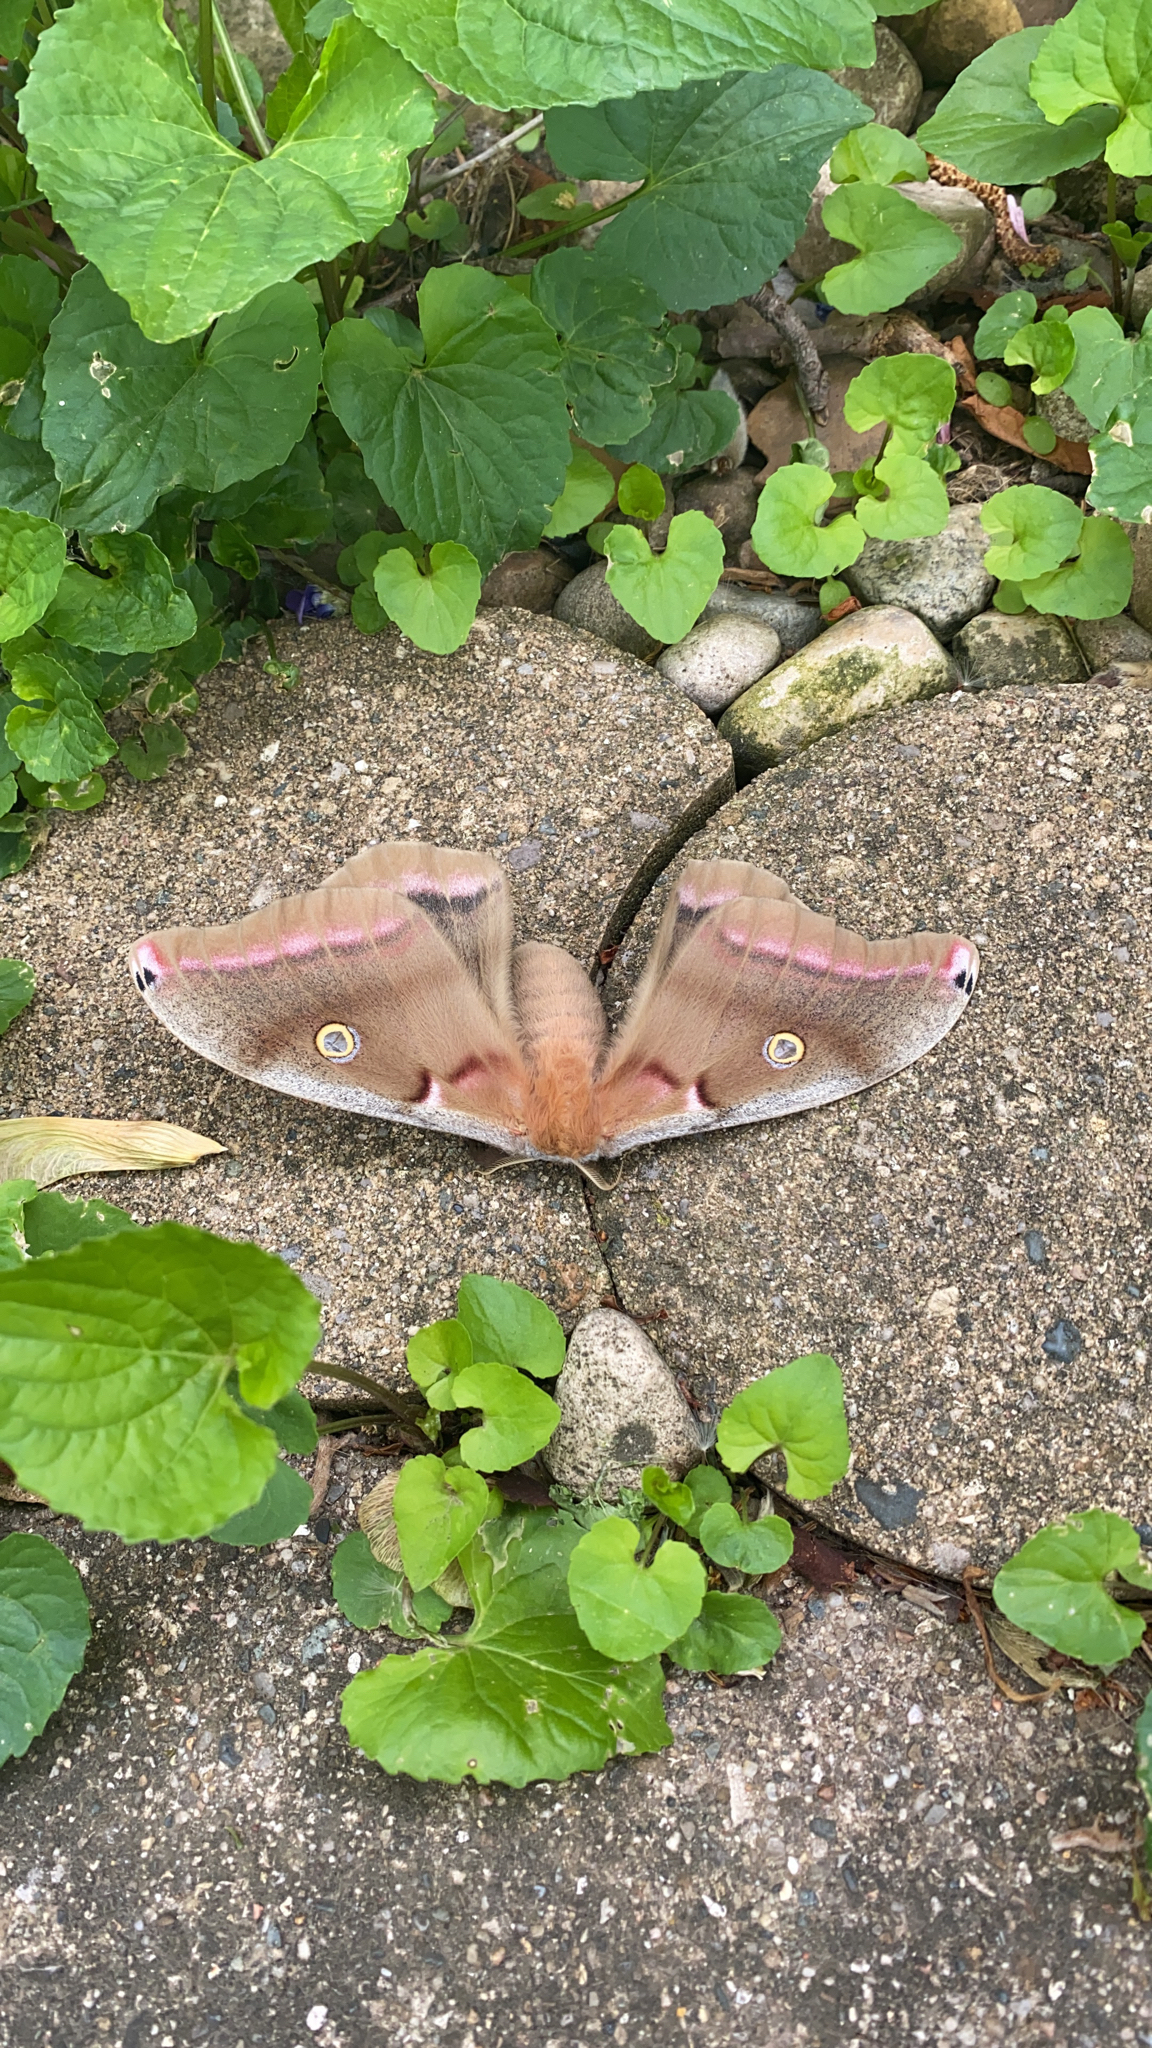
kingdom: Animalia
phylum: Arthropoda
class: Insecta
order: Lepidoptera
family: Saturniidae
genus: Antheraea
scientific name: Antheraea polyphemus
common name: Polyphemus moth
